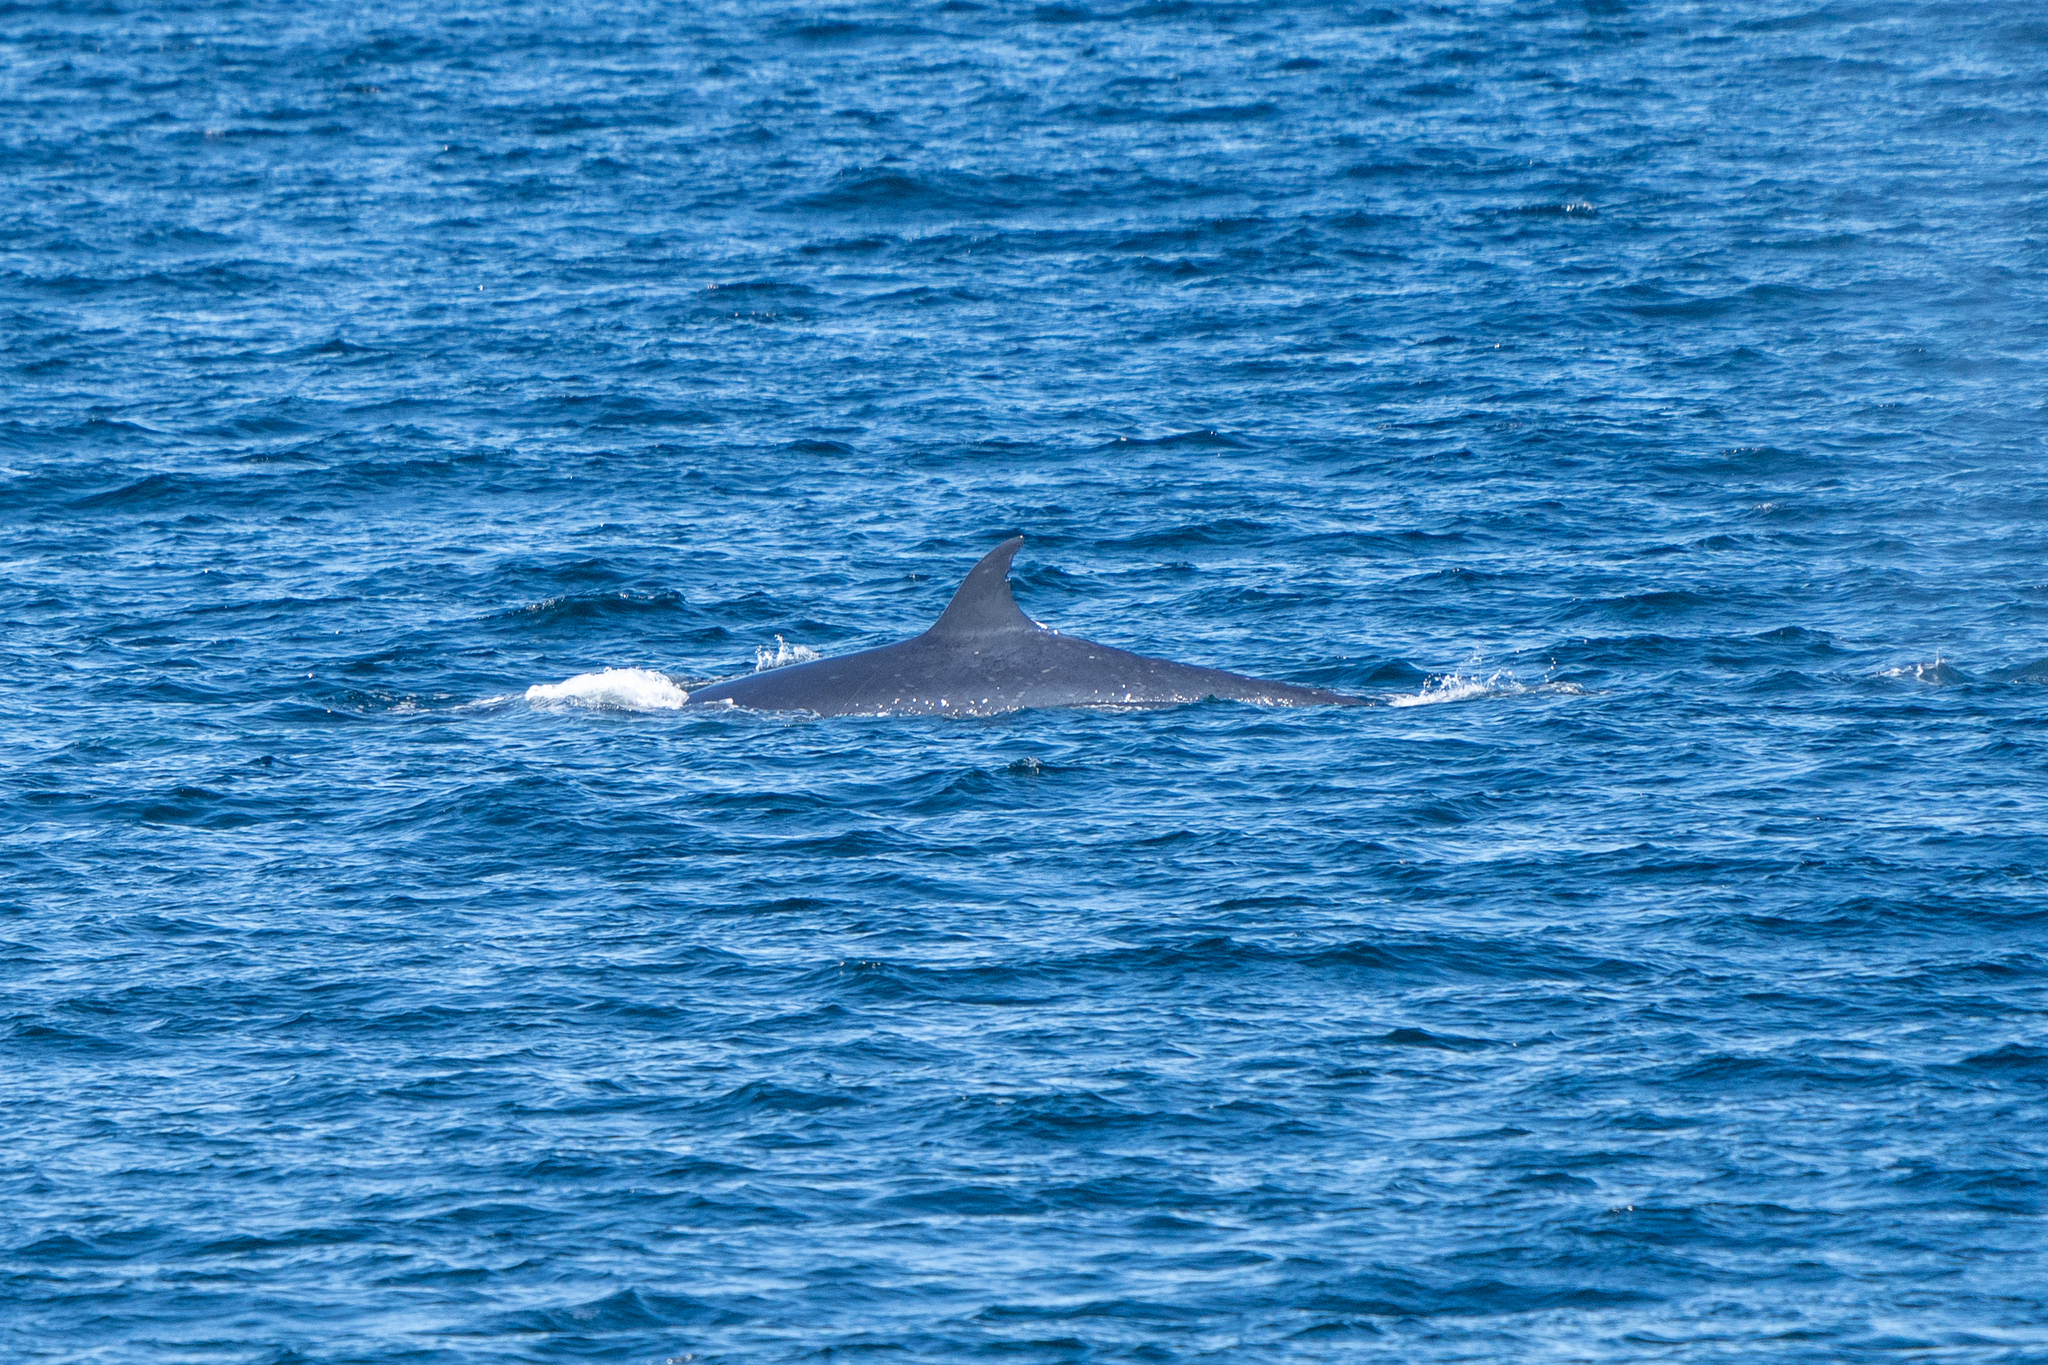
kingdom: Animalia
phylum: Chordata
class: Mammalia
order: Cetacea
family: Balaenopteridae
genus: Balaenoptera
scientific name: Balaenoptera borealis
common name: Sei whale
